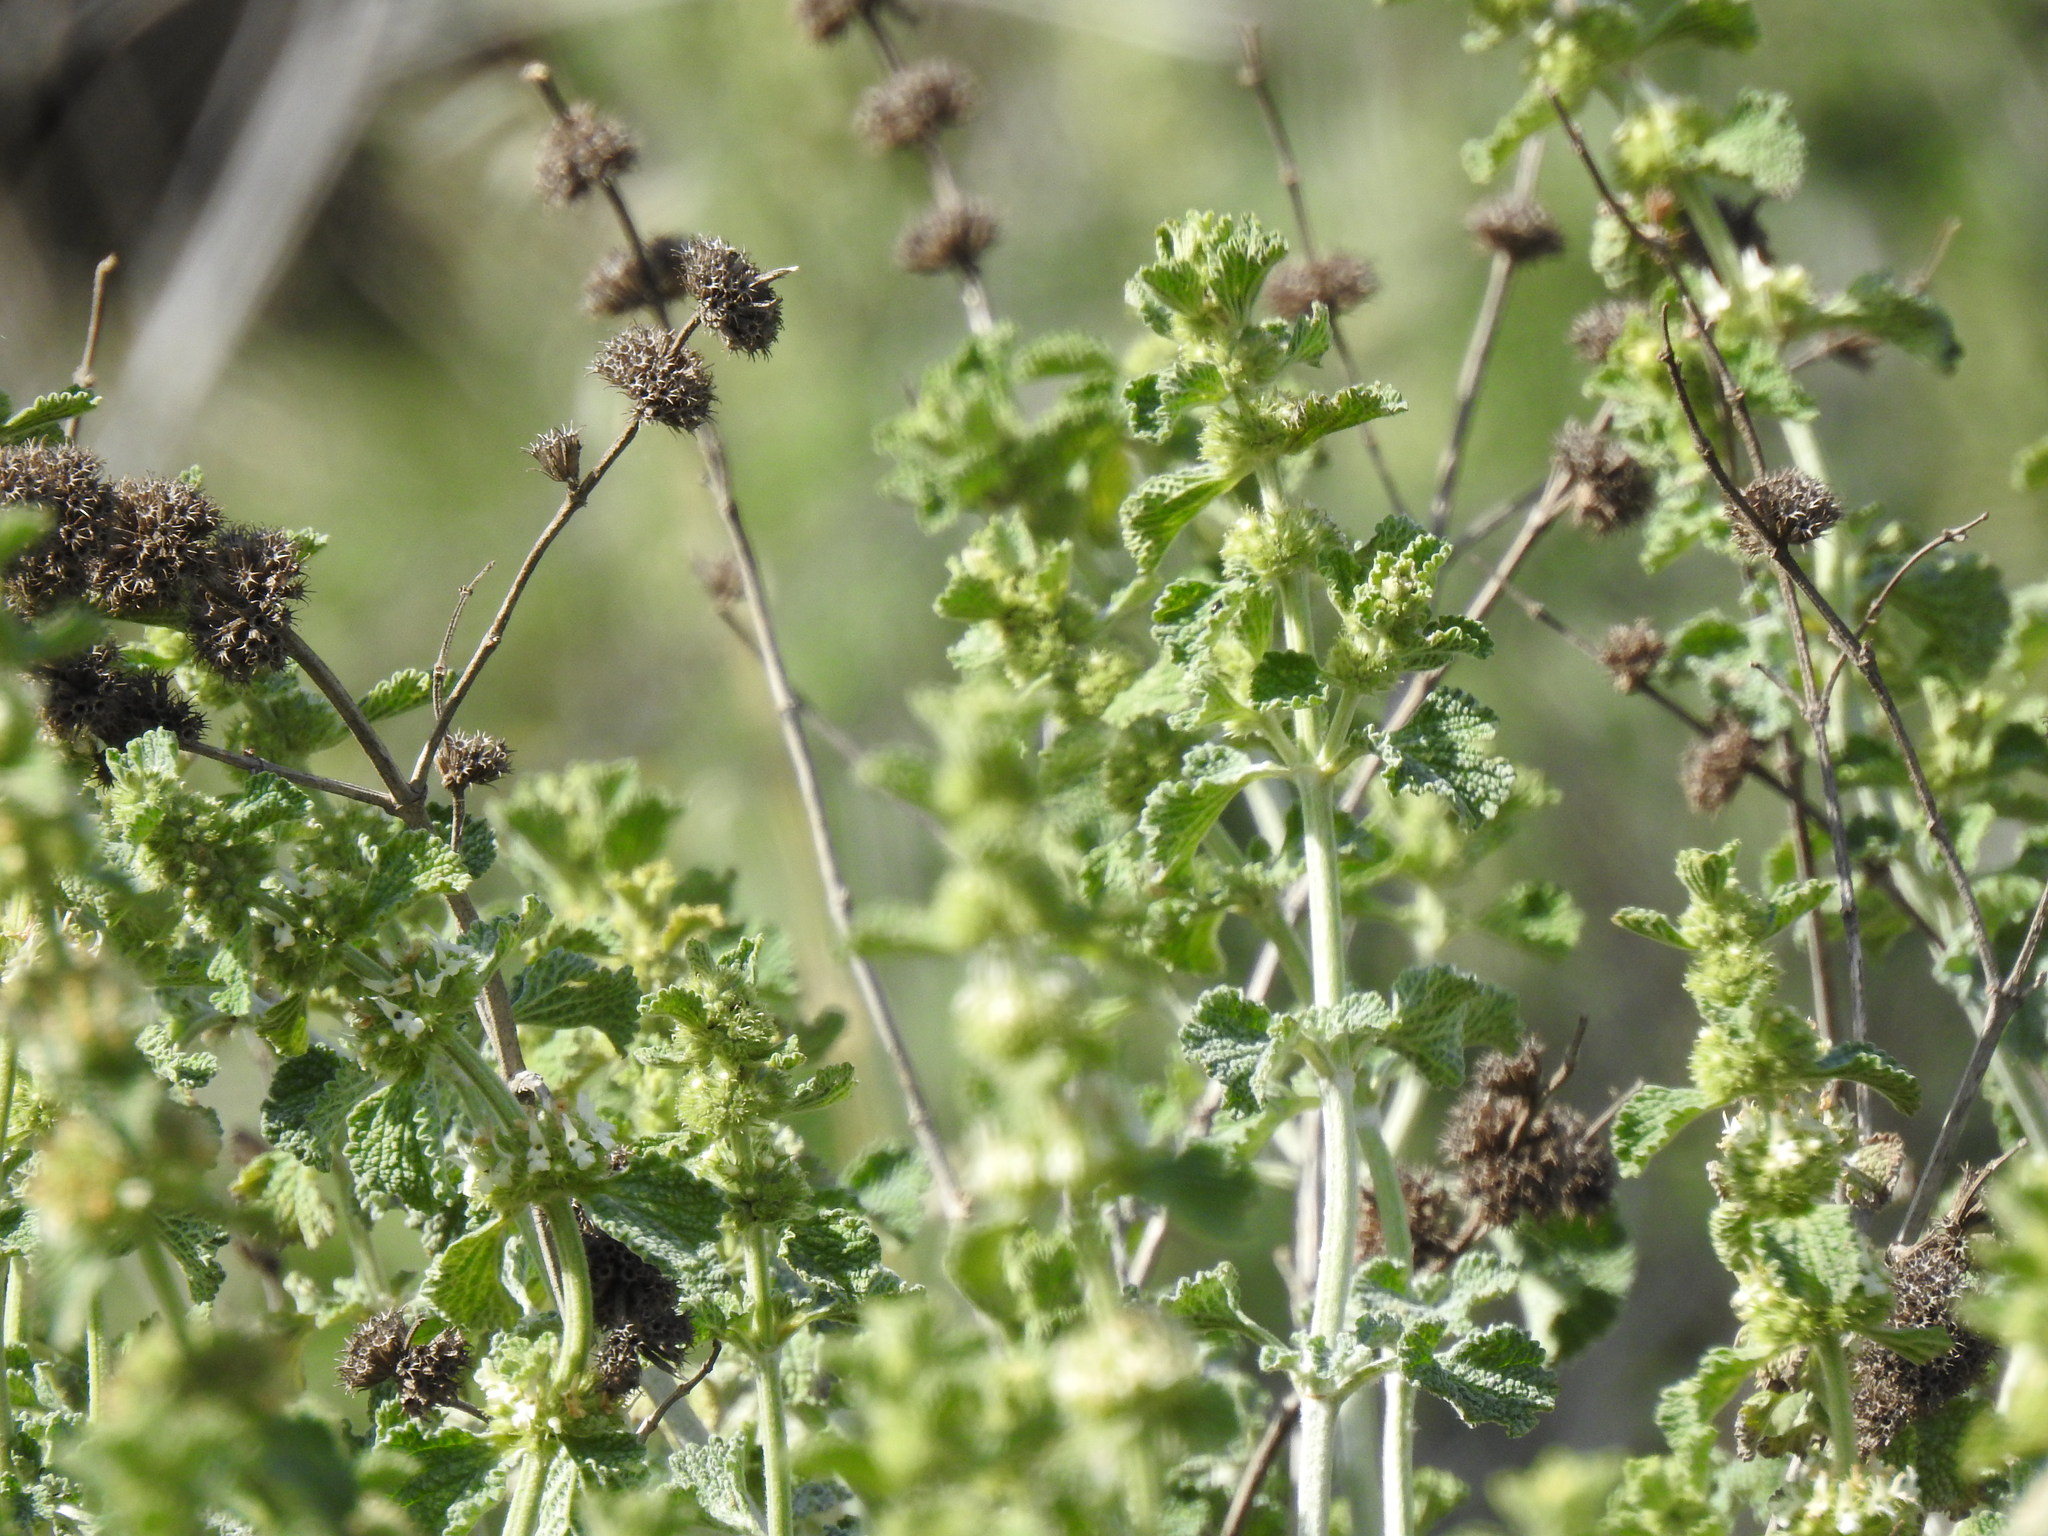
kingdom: Plantae
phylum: Tracheophyta
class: Magnoliopsida
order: Lamiales
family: Lamiaceae
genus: Marrubium
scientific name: Marrubium vulgare
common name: Horehound
